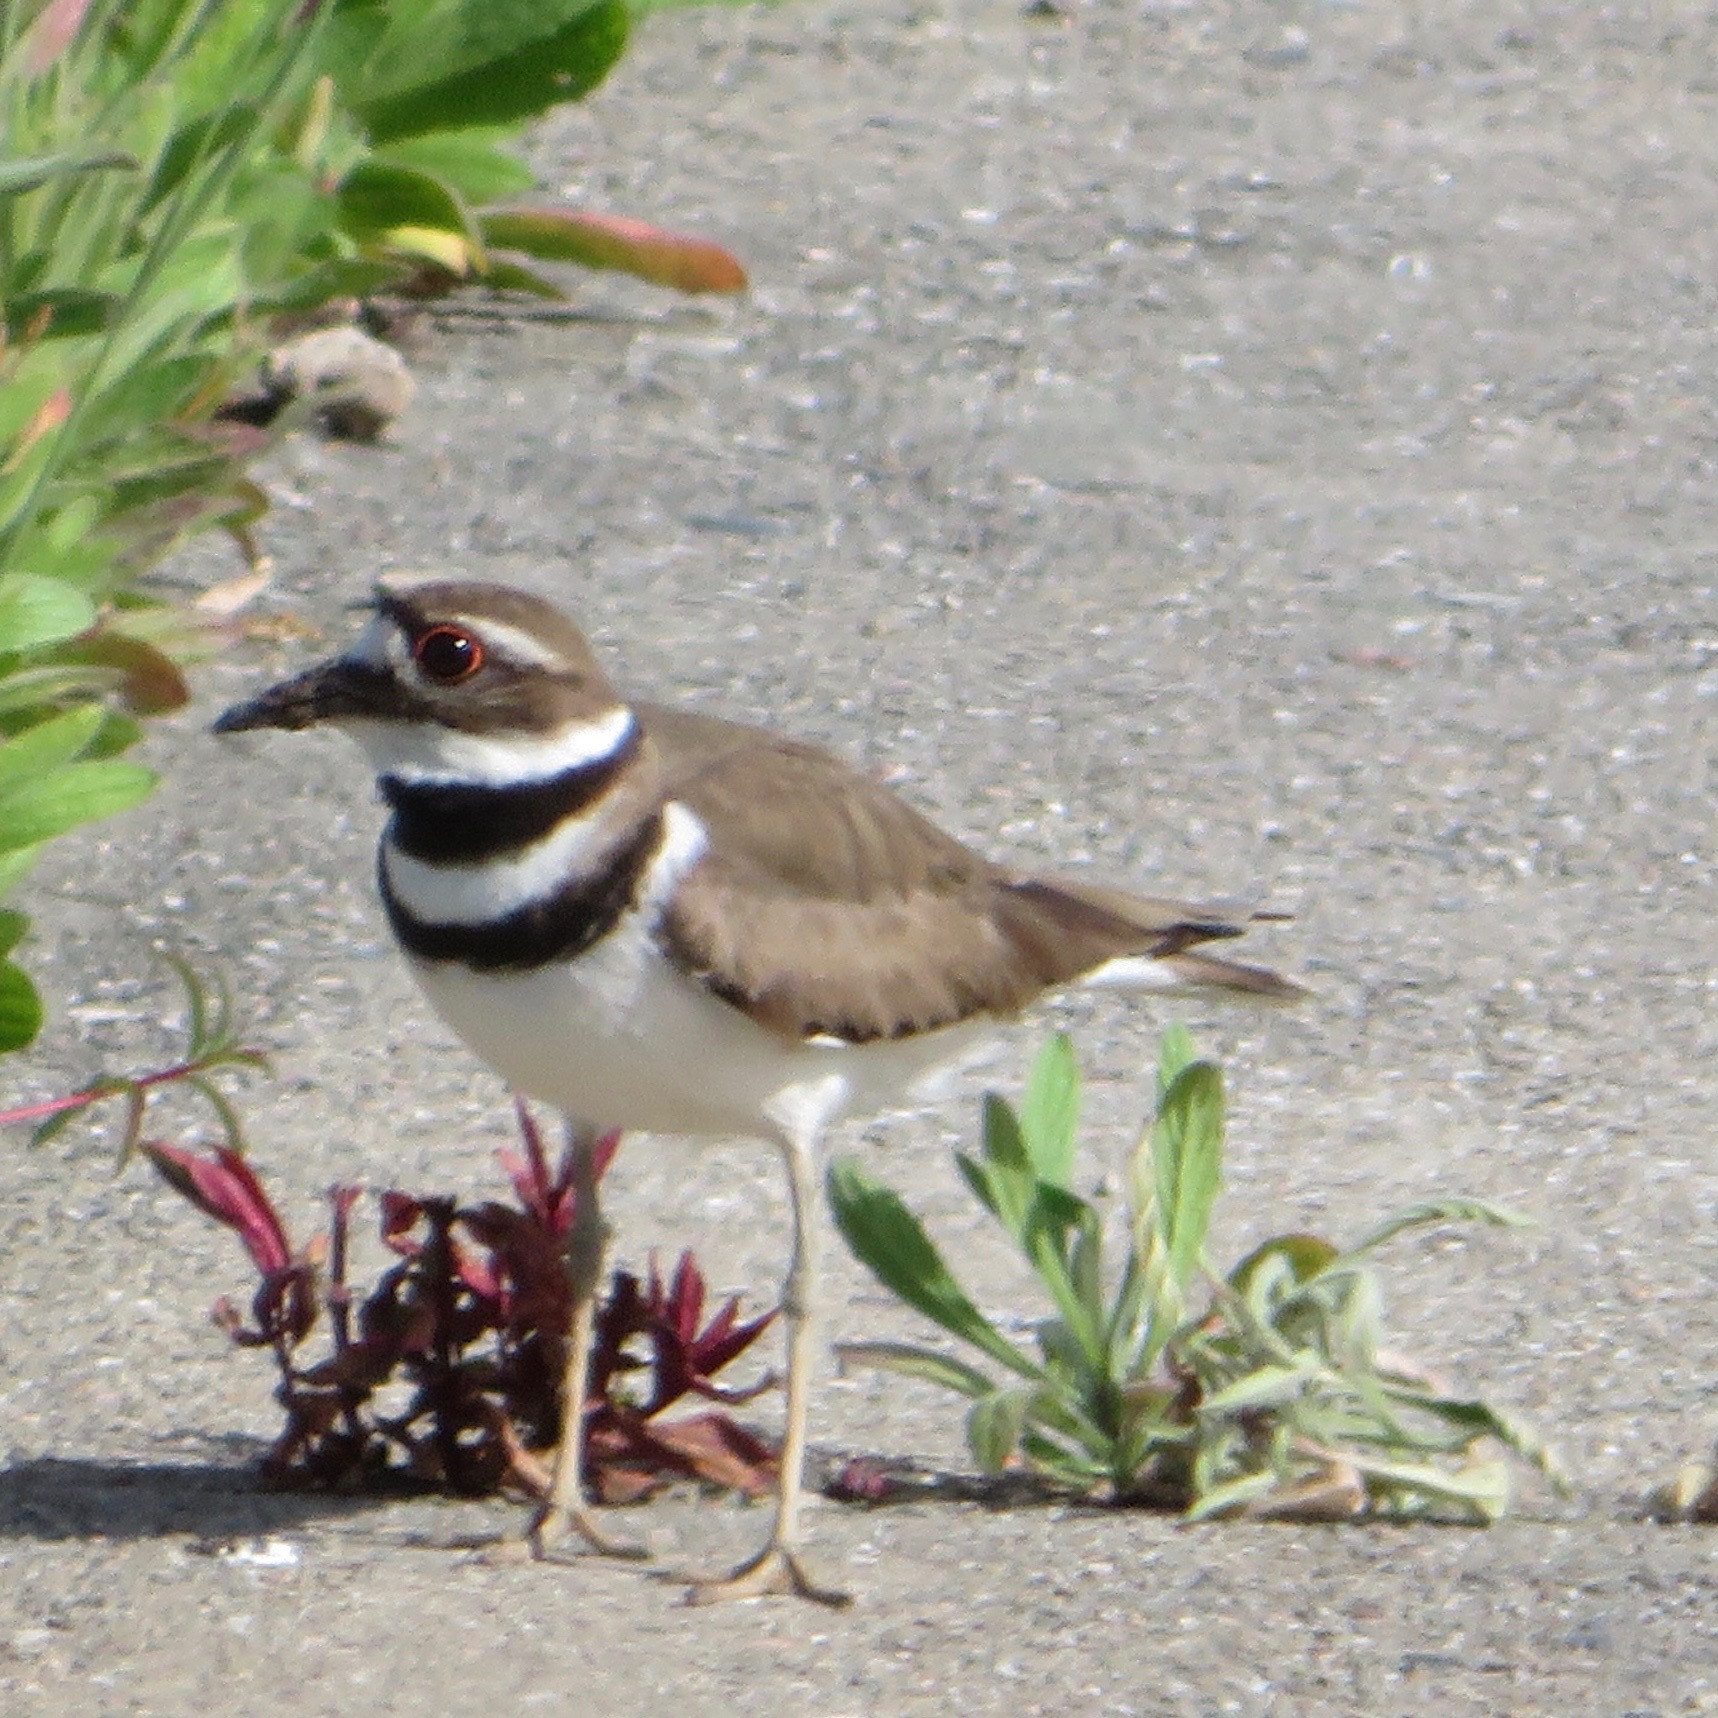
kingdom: Animalia
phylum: Chordata
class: Aves
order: Charadriiformes
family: Charadriidae
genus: Charadrius
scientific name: Charadrius vociferus
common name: Killdeer
